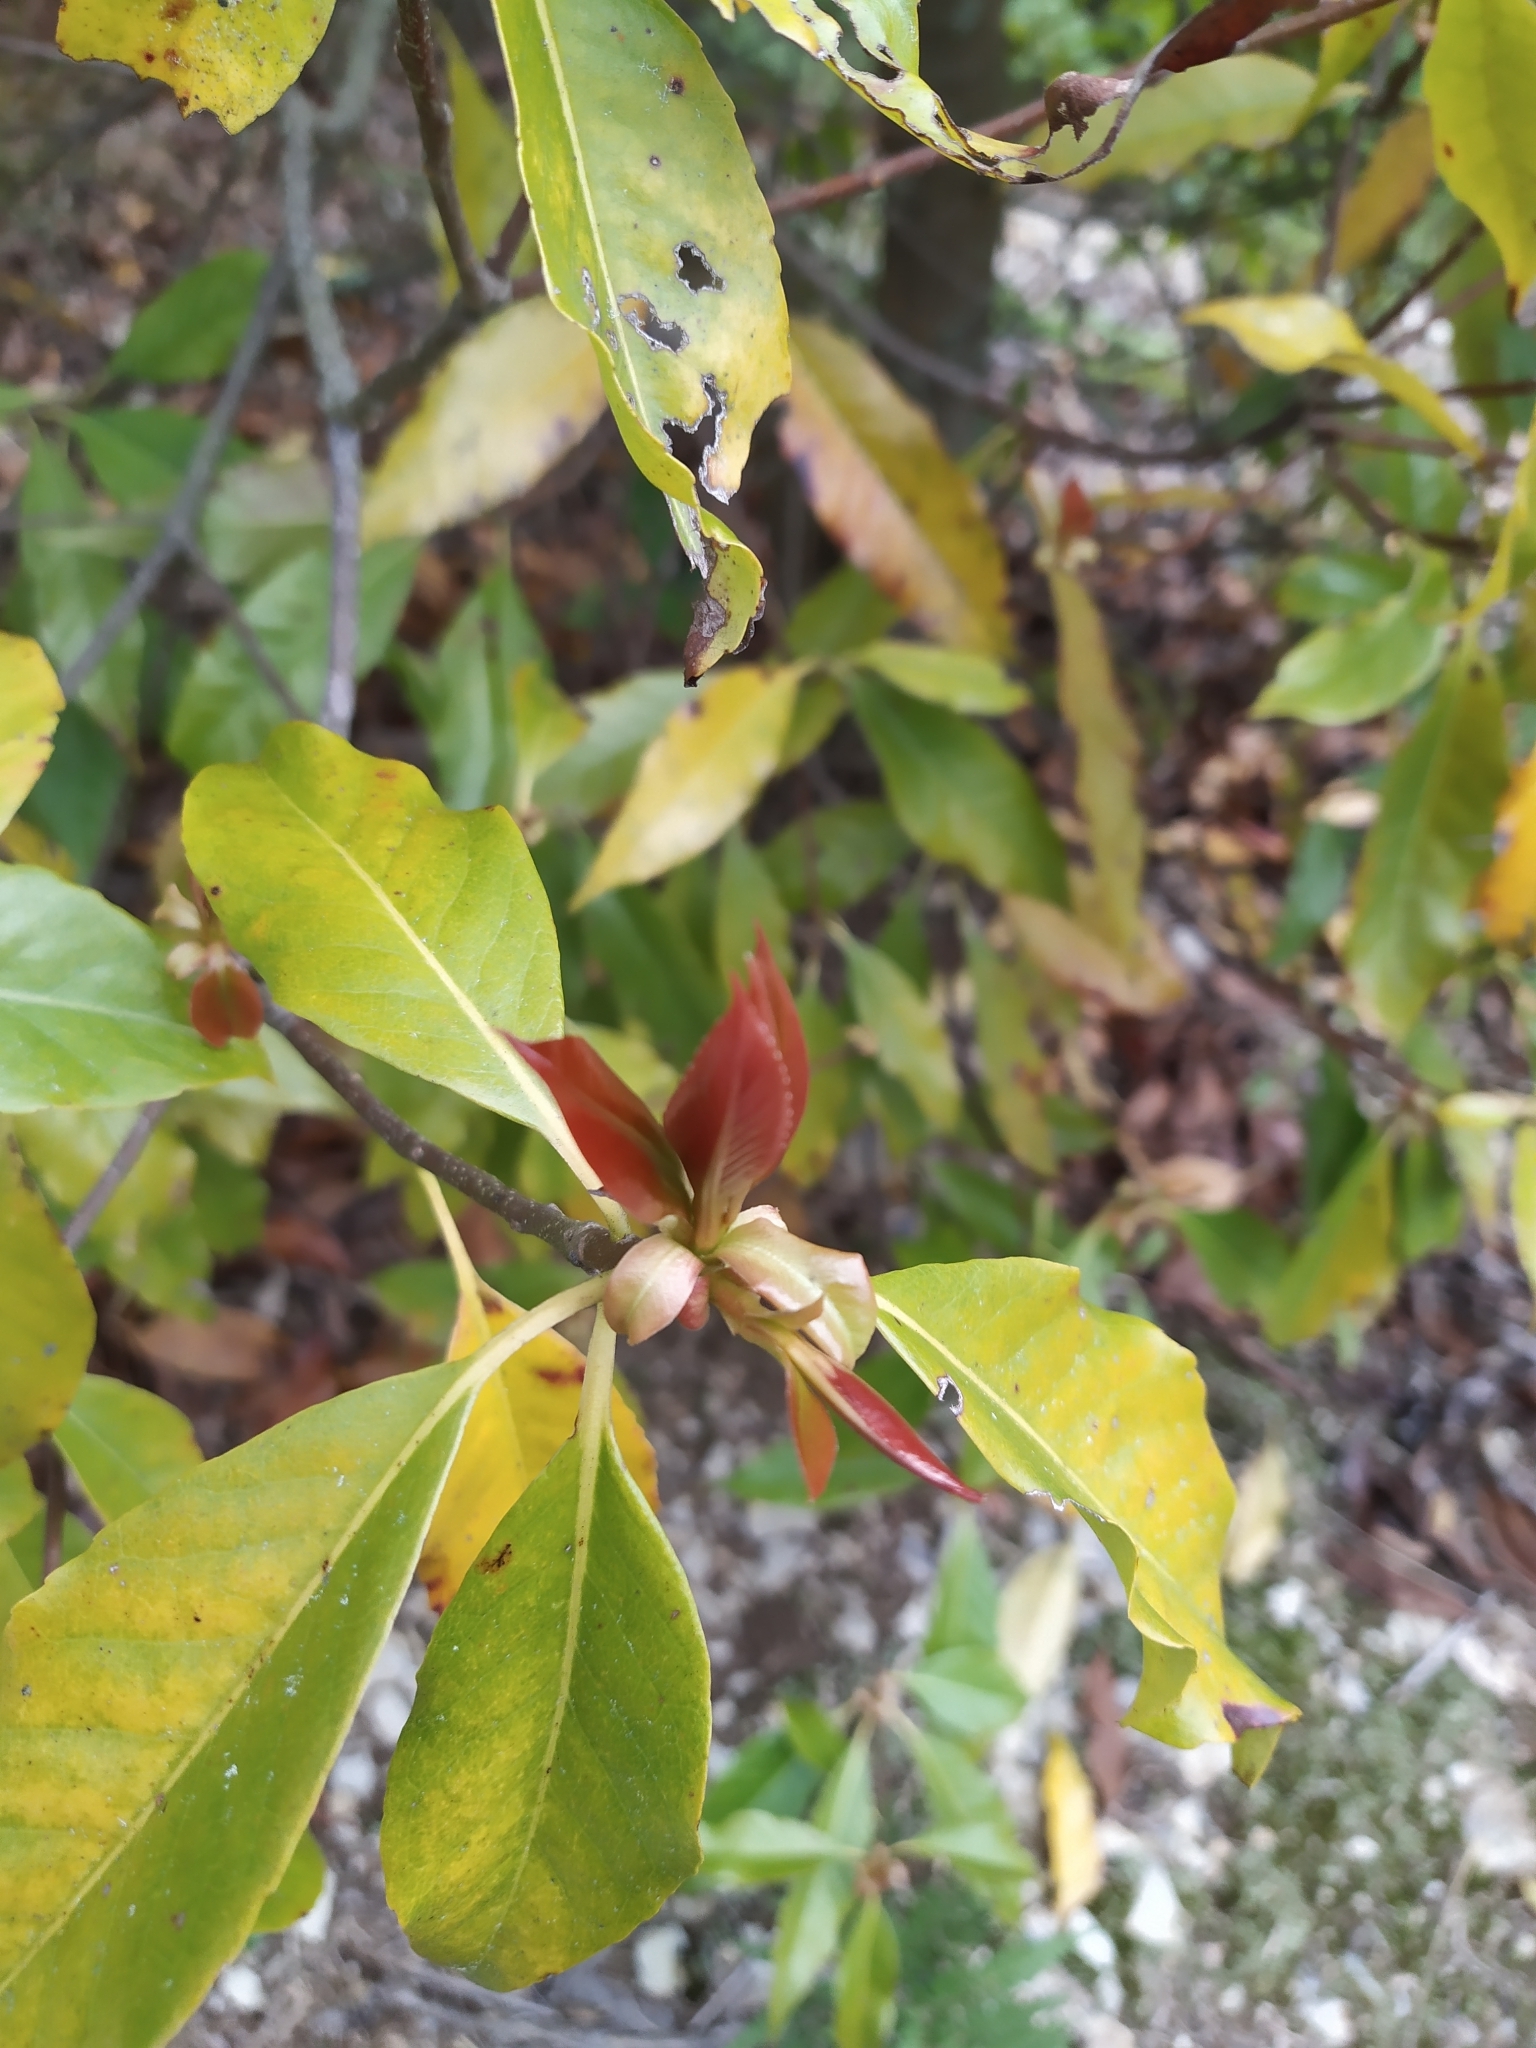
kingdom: Plantae
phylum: Tracheophyta
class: Magnoliopsida
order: Ericales
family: Theaceae
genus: Schima
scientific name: Schima superba
